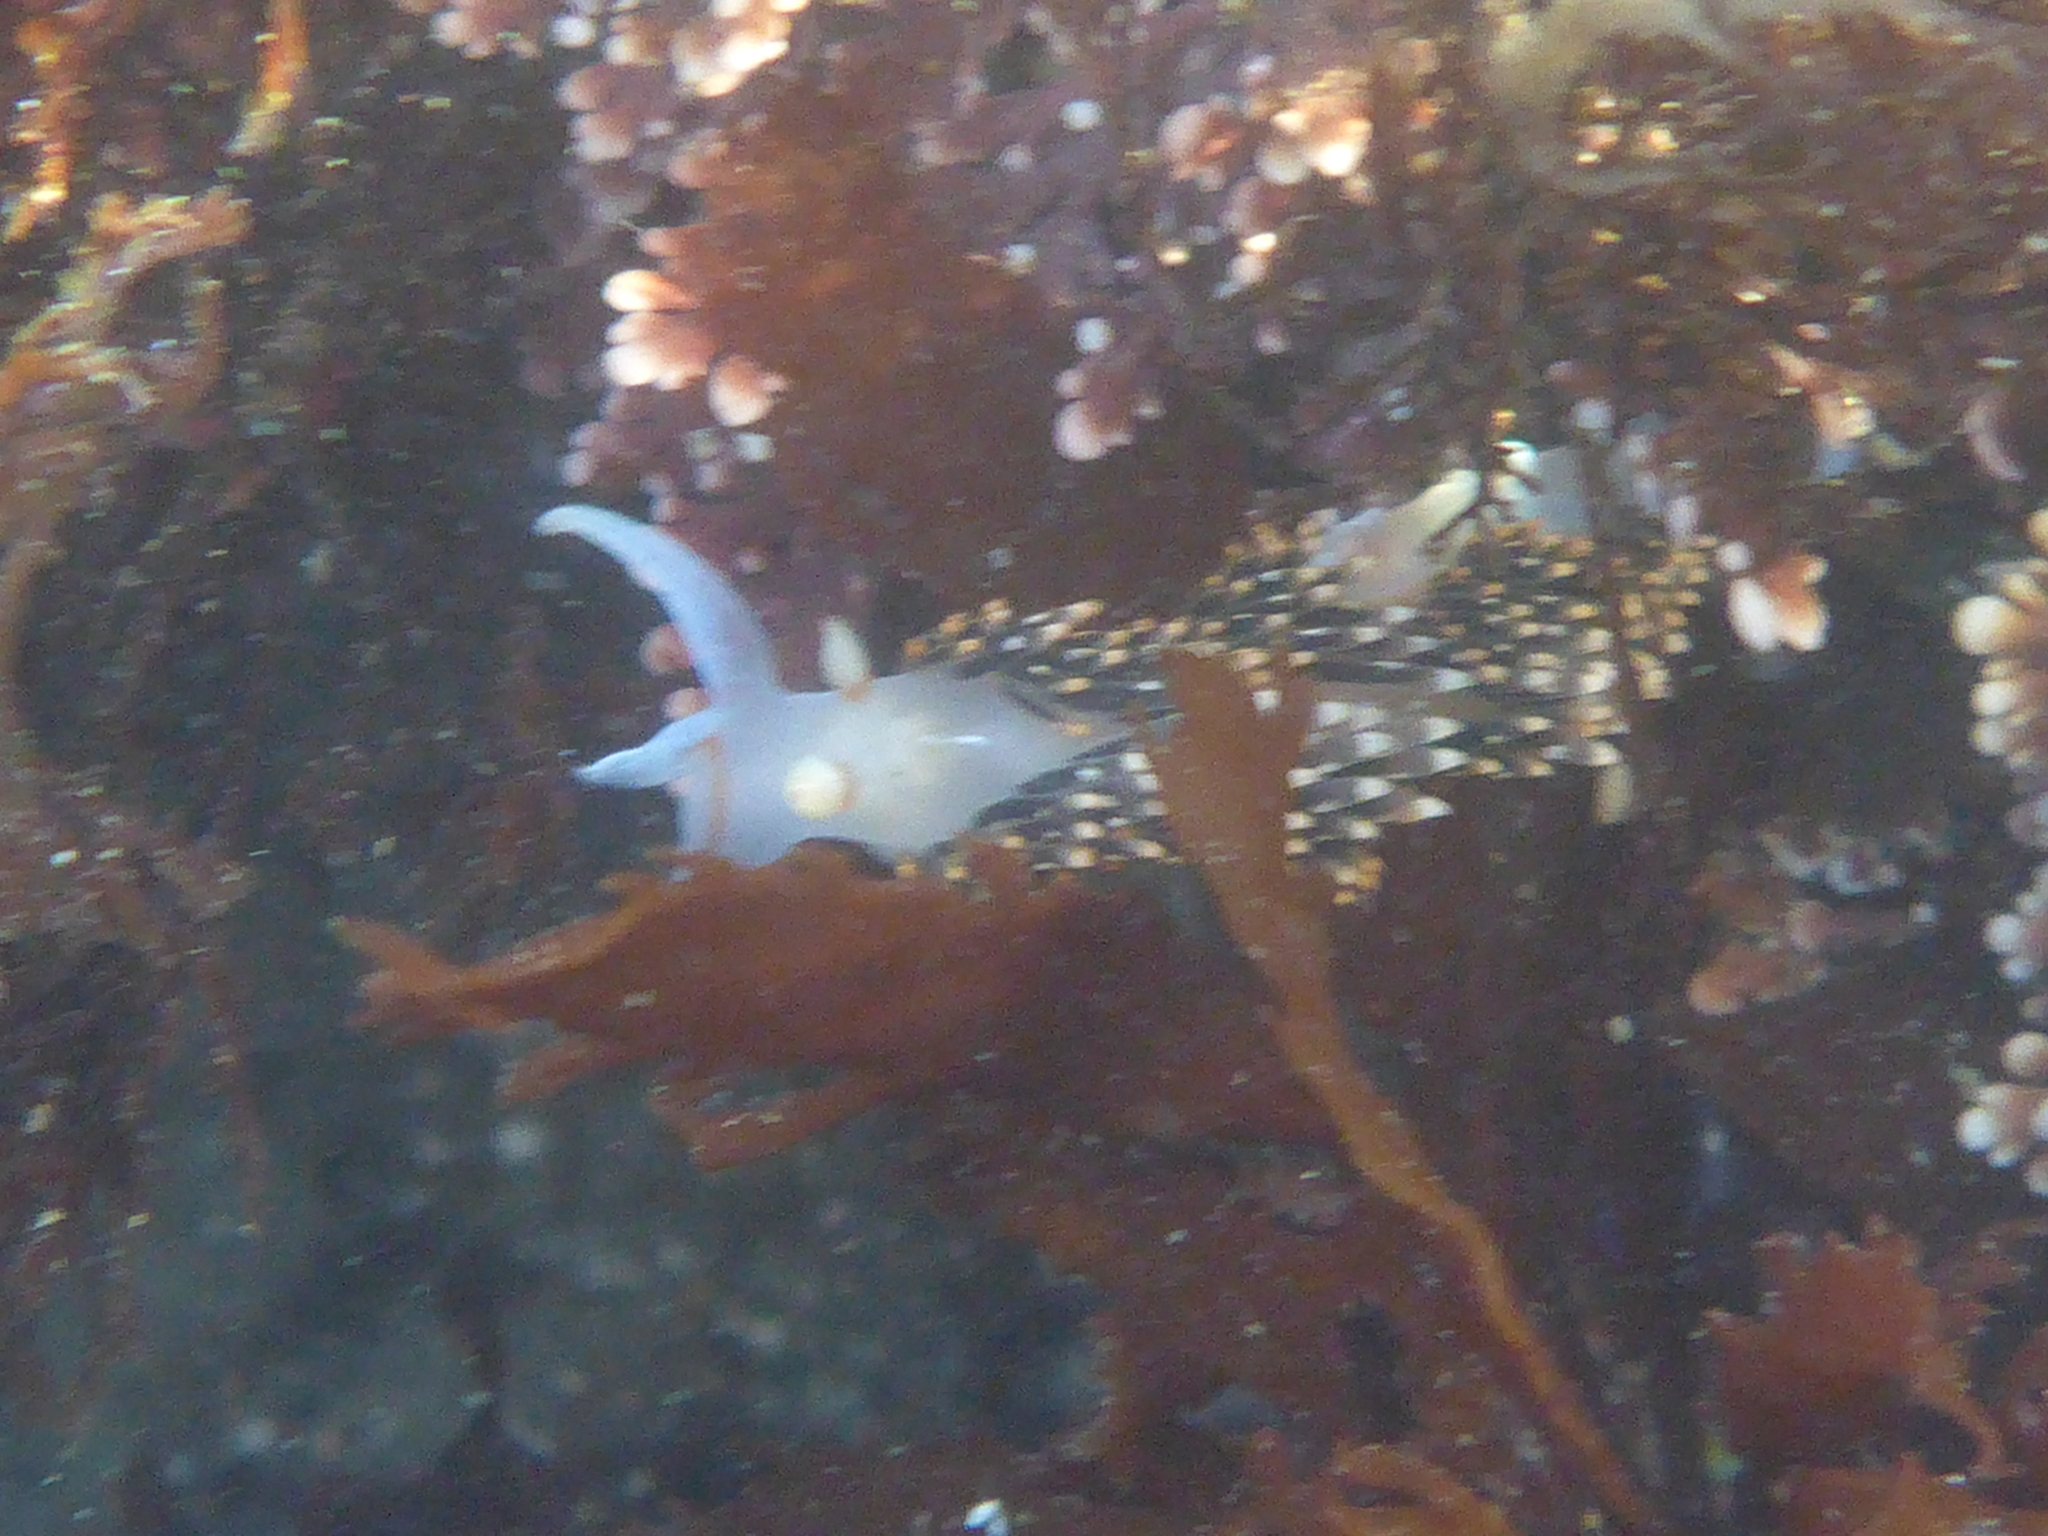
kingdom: Animalia
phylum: Mollusca
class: Gastropoda
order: Nudibranchia
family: Facelinidae
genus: Phidiana
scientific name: Phidiana hiltoni
